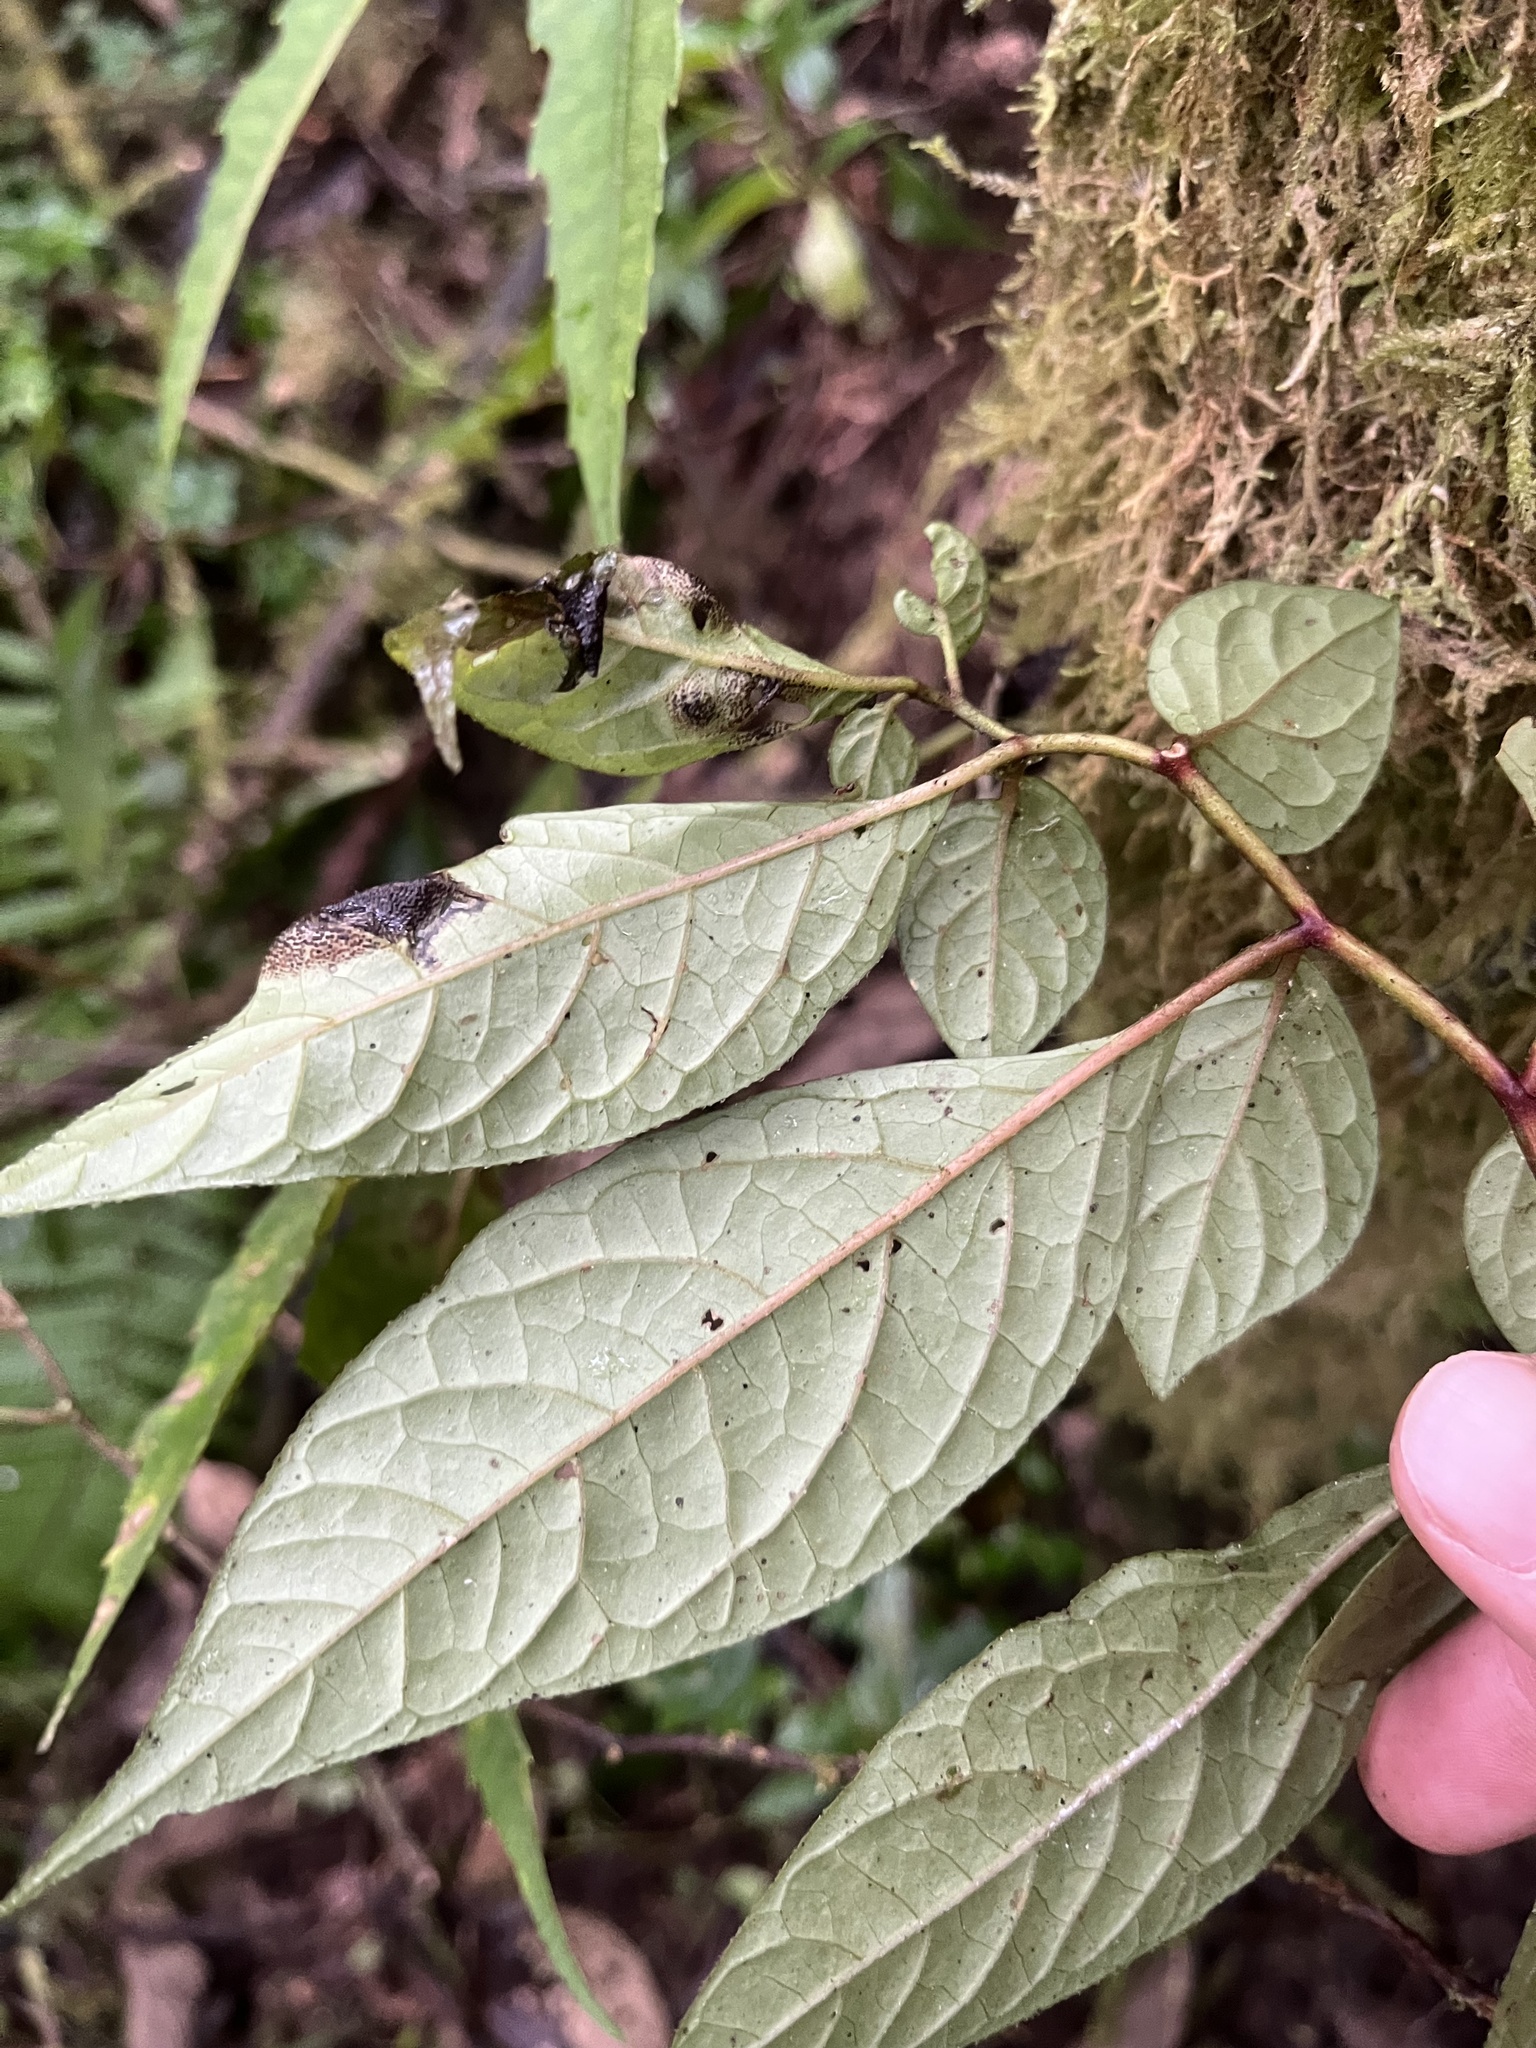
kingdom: Plantae
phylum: Tracheophyta
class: Magnoliopsida
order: Solanales
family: Solanaceae
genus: Capsicum
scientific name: Capsicum geminifolium
